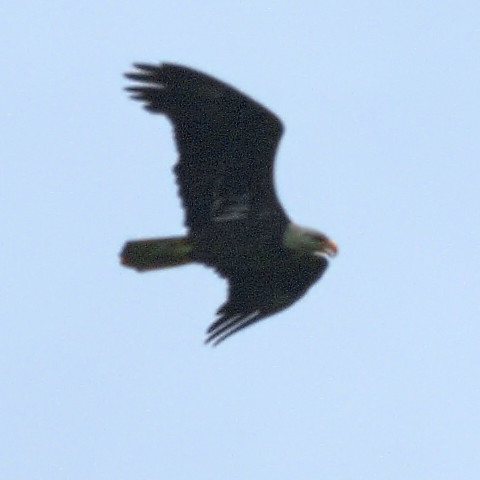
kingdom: Animalia
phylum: Chordata
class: Aves
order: Accipitriformes
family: Accipitridae
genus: Haliaeetus
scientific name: Haliaeetus leucocephalus
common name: Bald eagle
